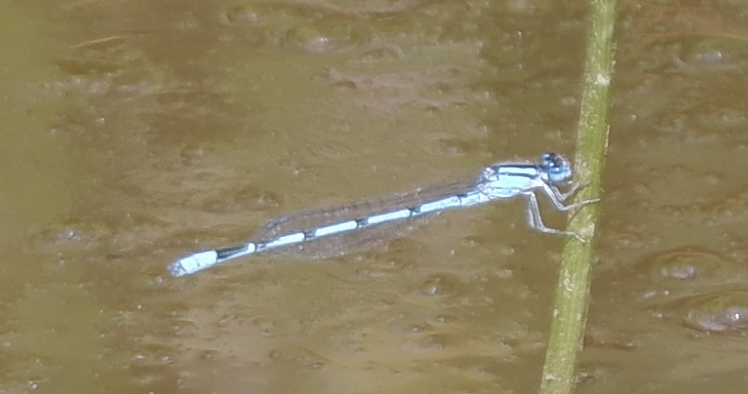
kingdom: Animalia
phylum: Arthropoda
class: Insecta
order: Odonata
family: Coenagrionidae
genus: Enallagma
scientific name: Enallagma civile
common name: Damselfly
